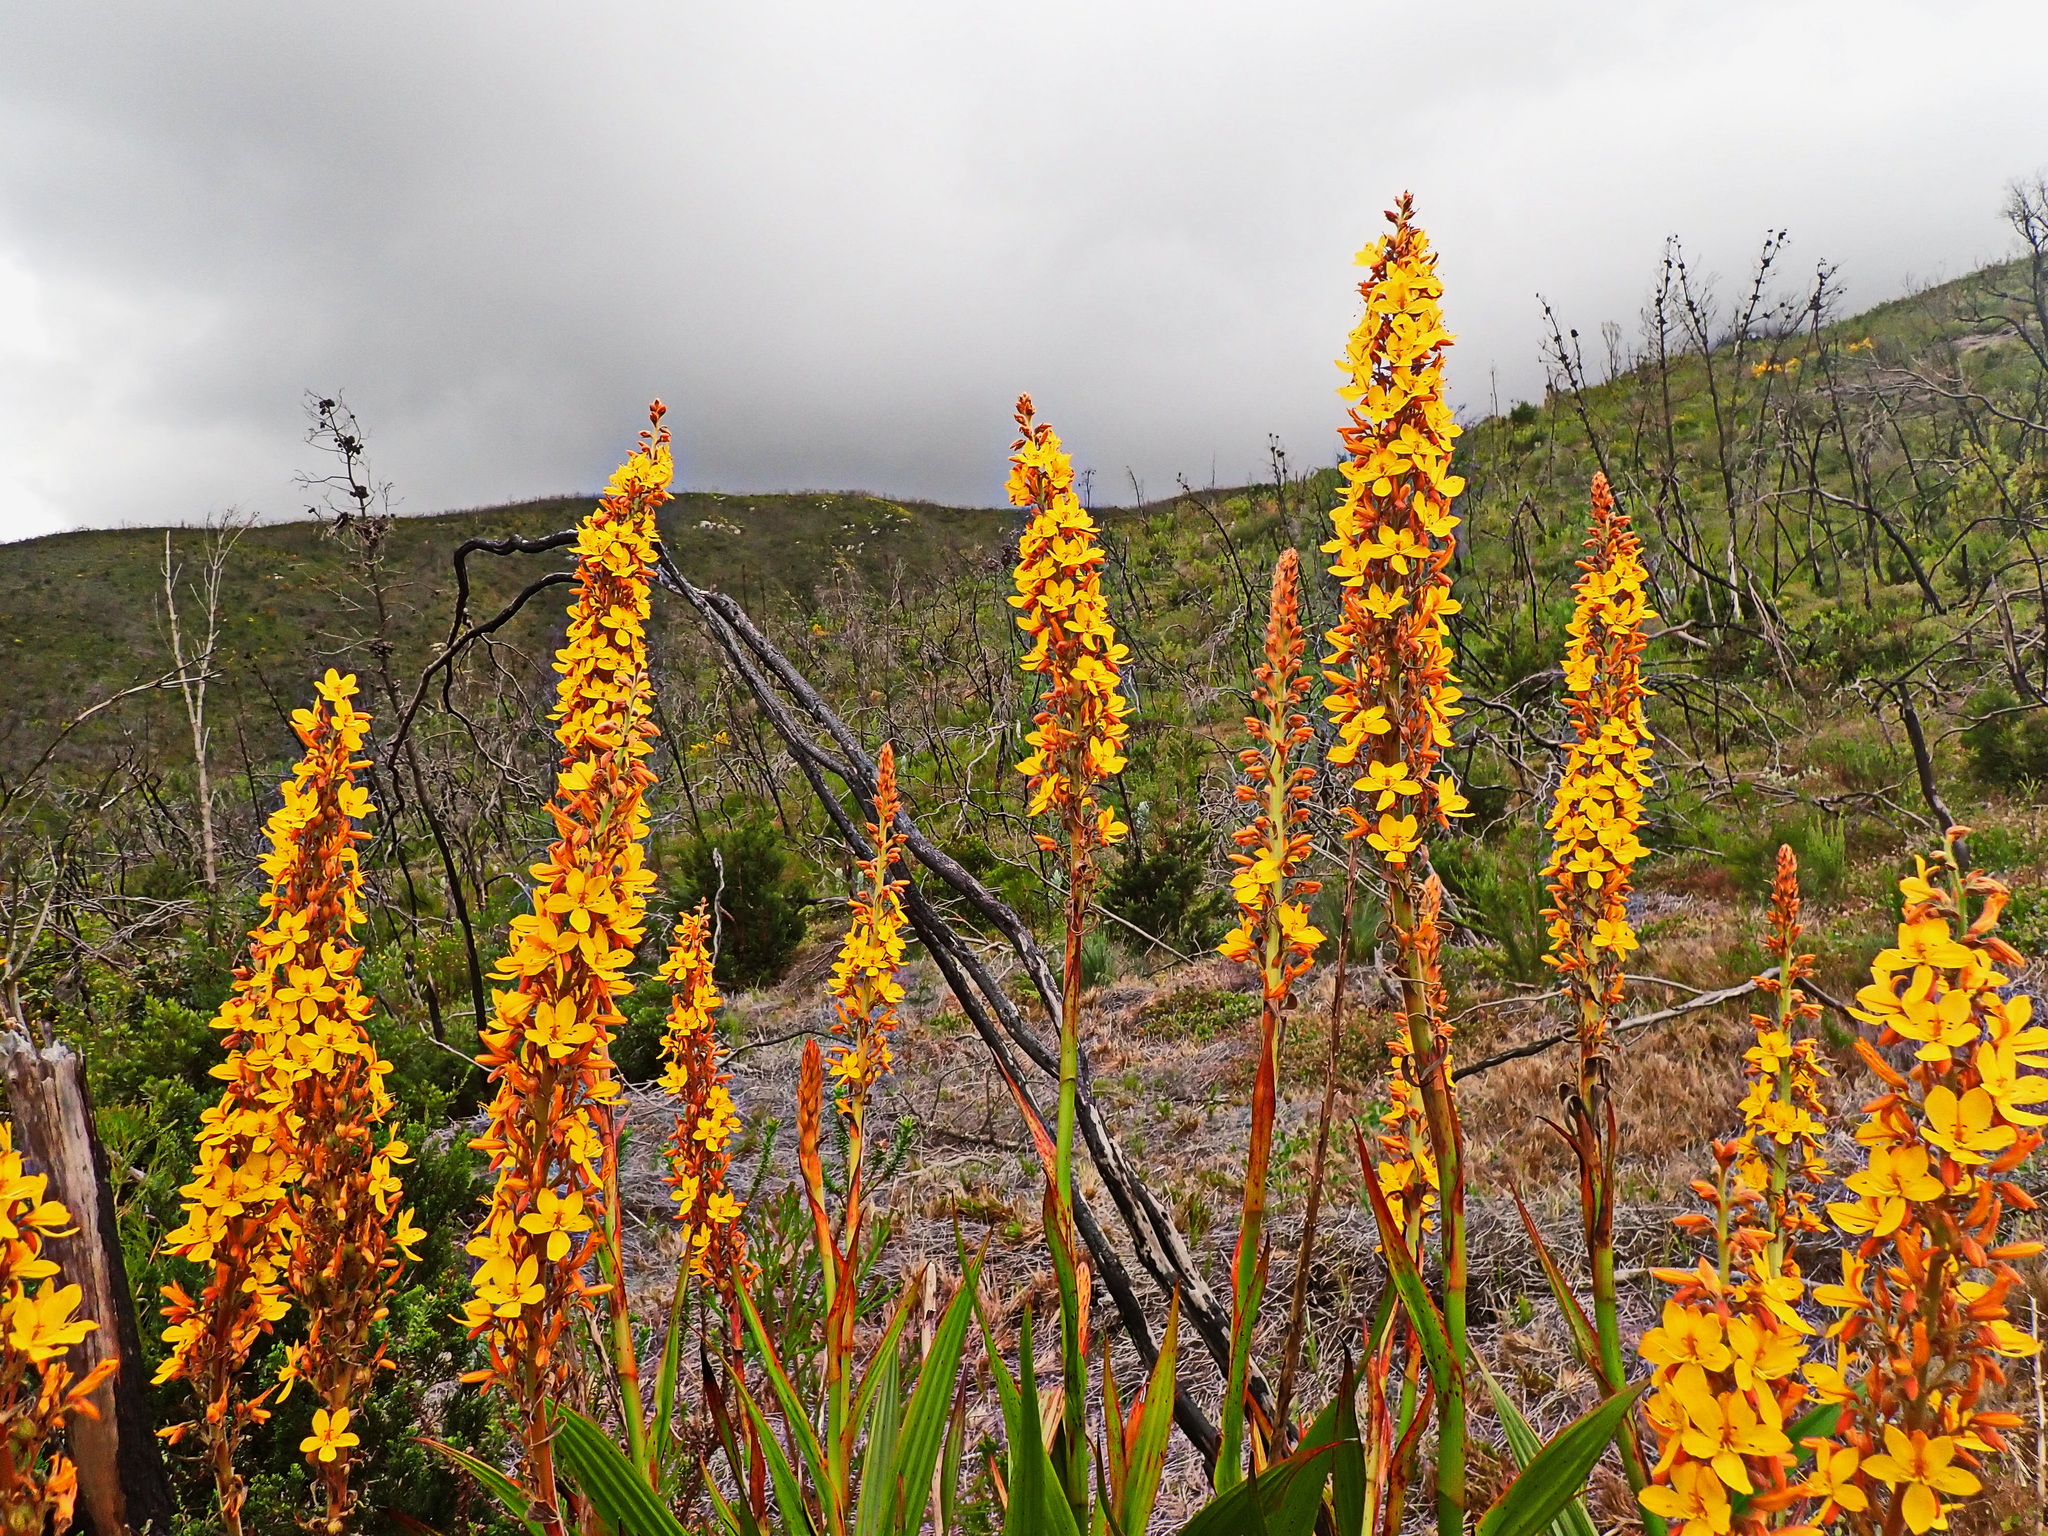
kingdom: Plantae
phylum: Tracheophyta
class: Magnoliopsida
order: Fabales
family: Fabaceae
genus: Cyclopia
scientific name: Cyclopia subternata
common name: Honeybush tea
